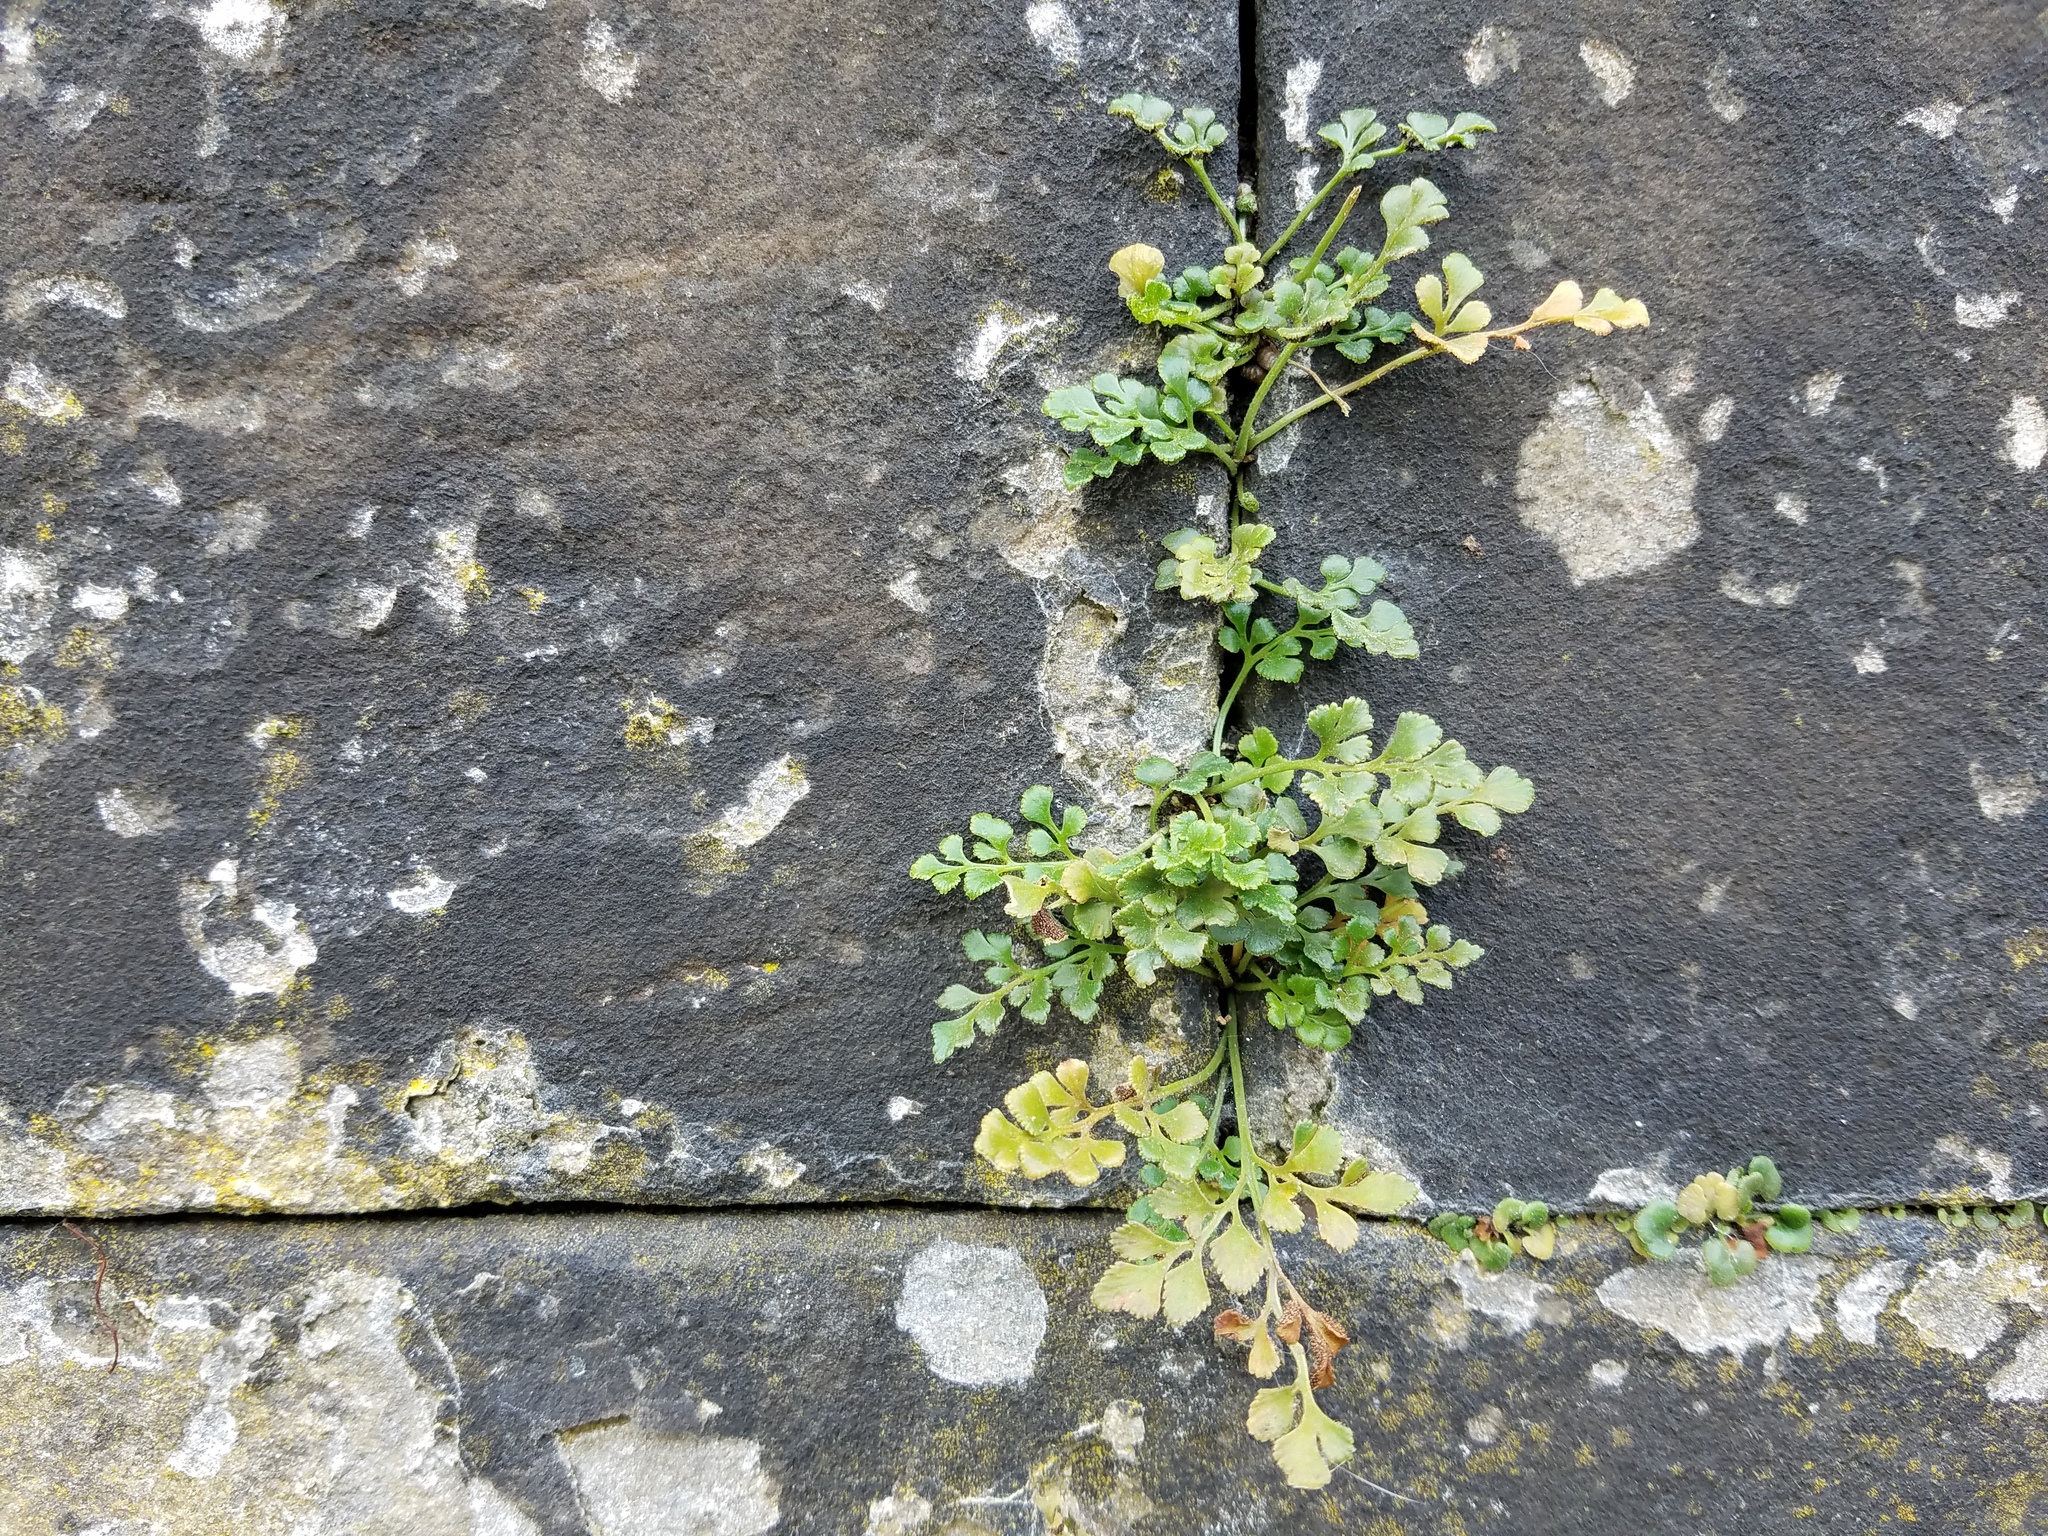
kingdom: Plantae
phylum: Tracheophyta
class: Polypodiopsida
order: Polypodiales
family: Aspleniaceae
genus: Asplenium
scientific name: Asplenium ruta-muraria
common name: Wall-rue
